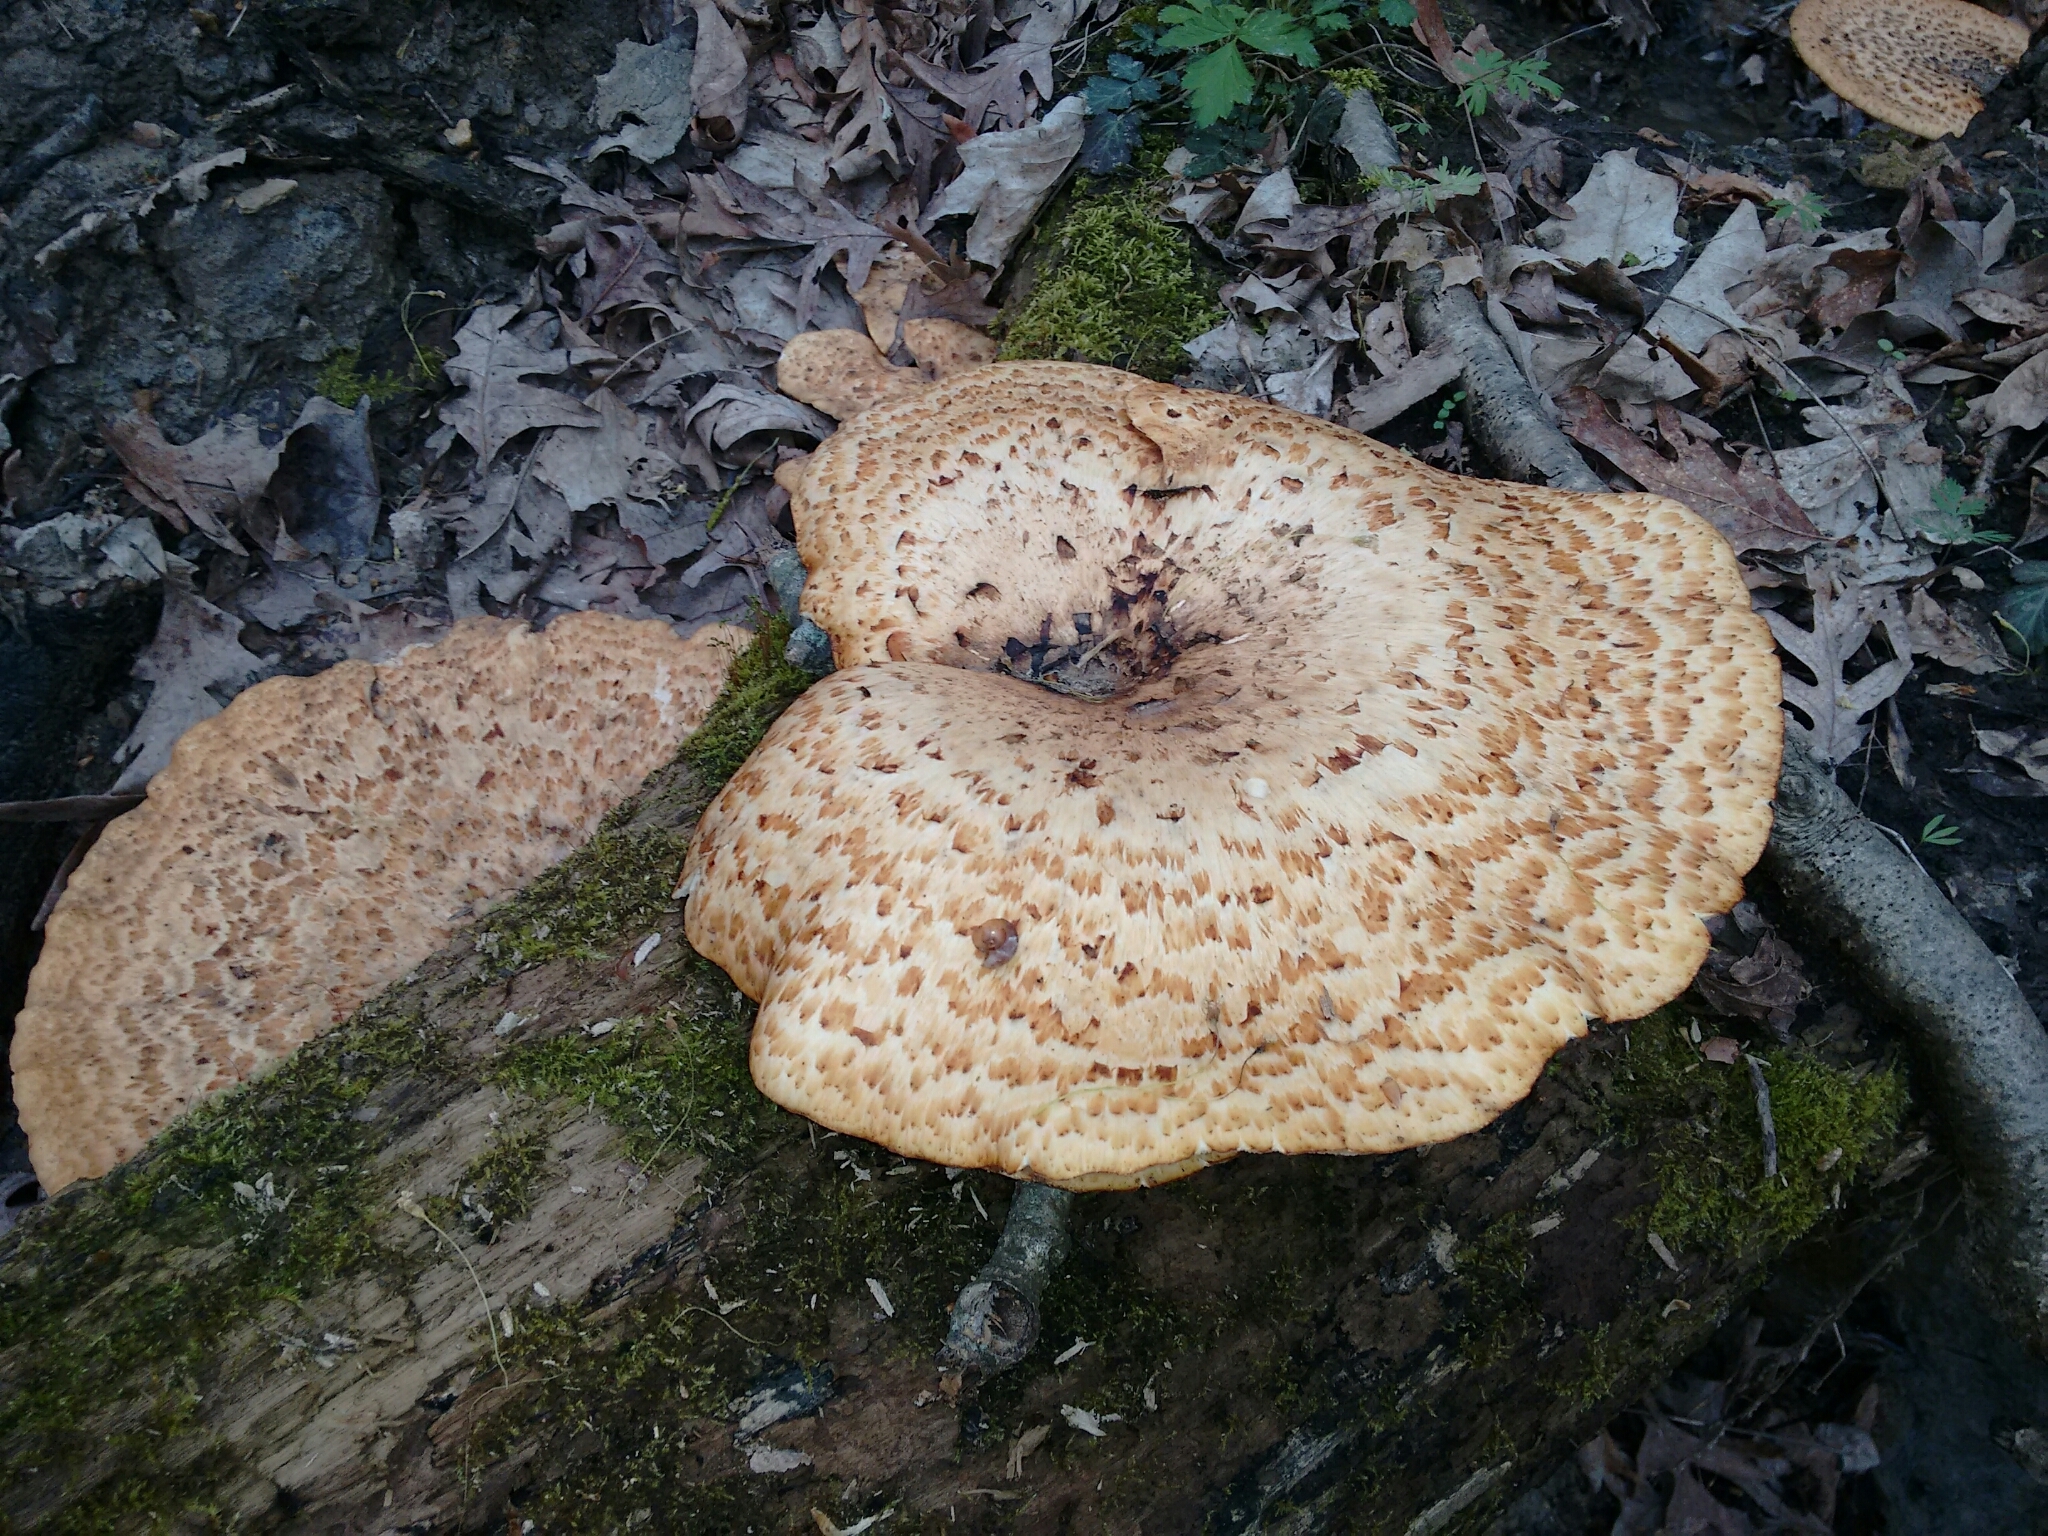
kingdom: Fungi
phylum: Basidiomycota
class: Agaricomycetes
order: Polyporales
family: Polyporaceae
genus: Cerioporus
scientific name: Cerioporus squamosus
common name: Dryad's saddle
